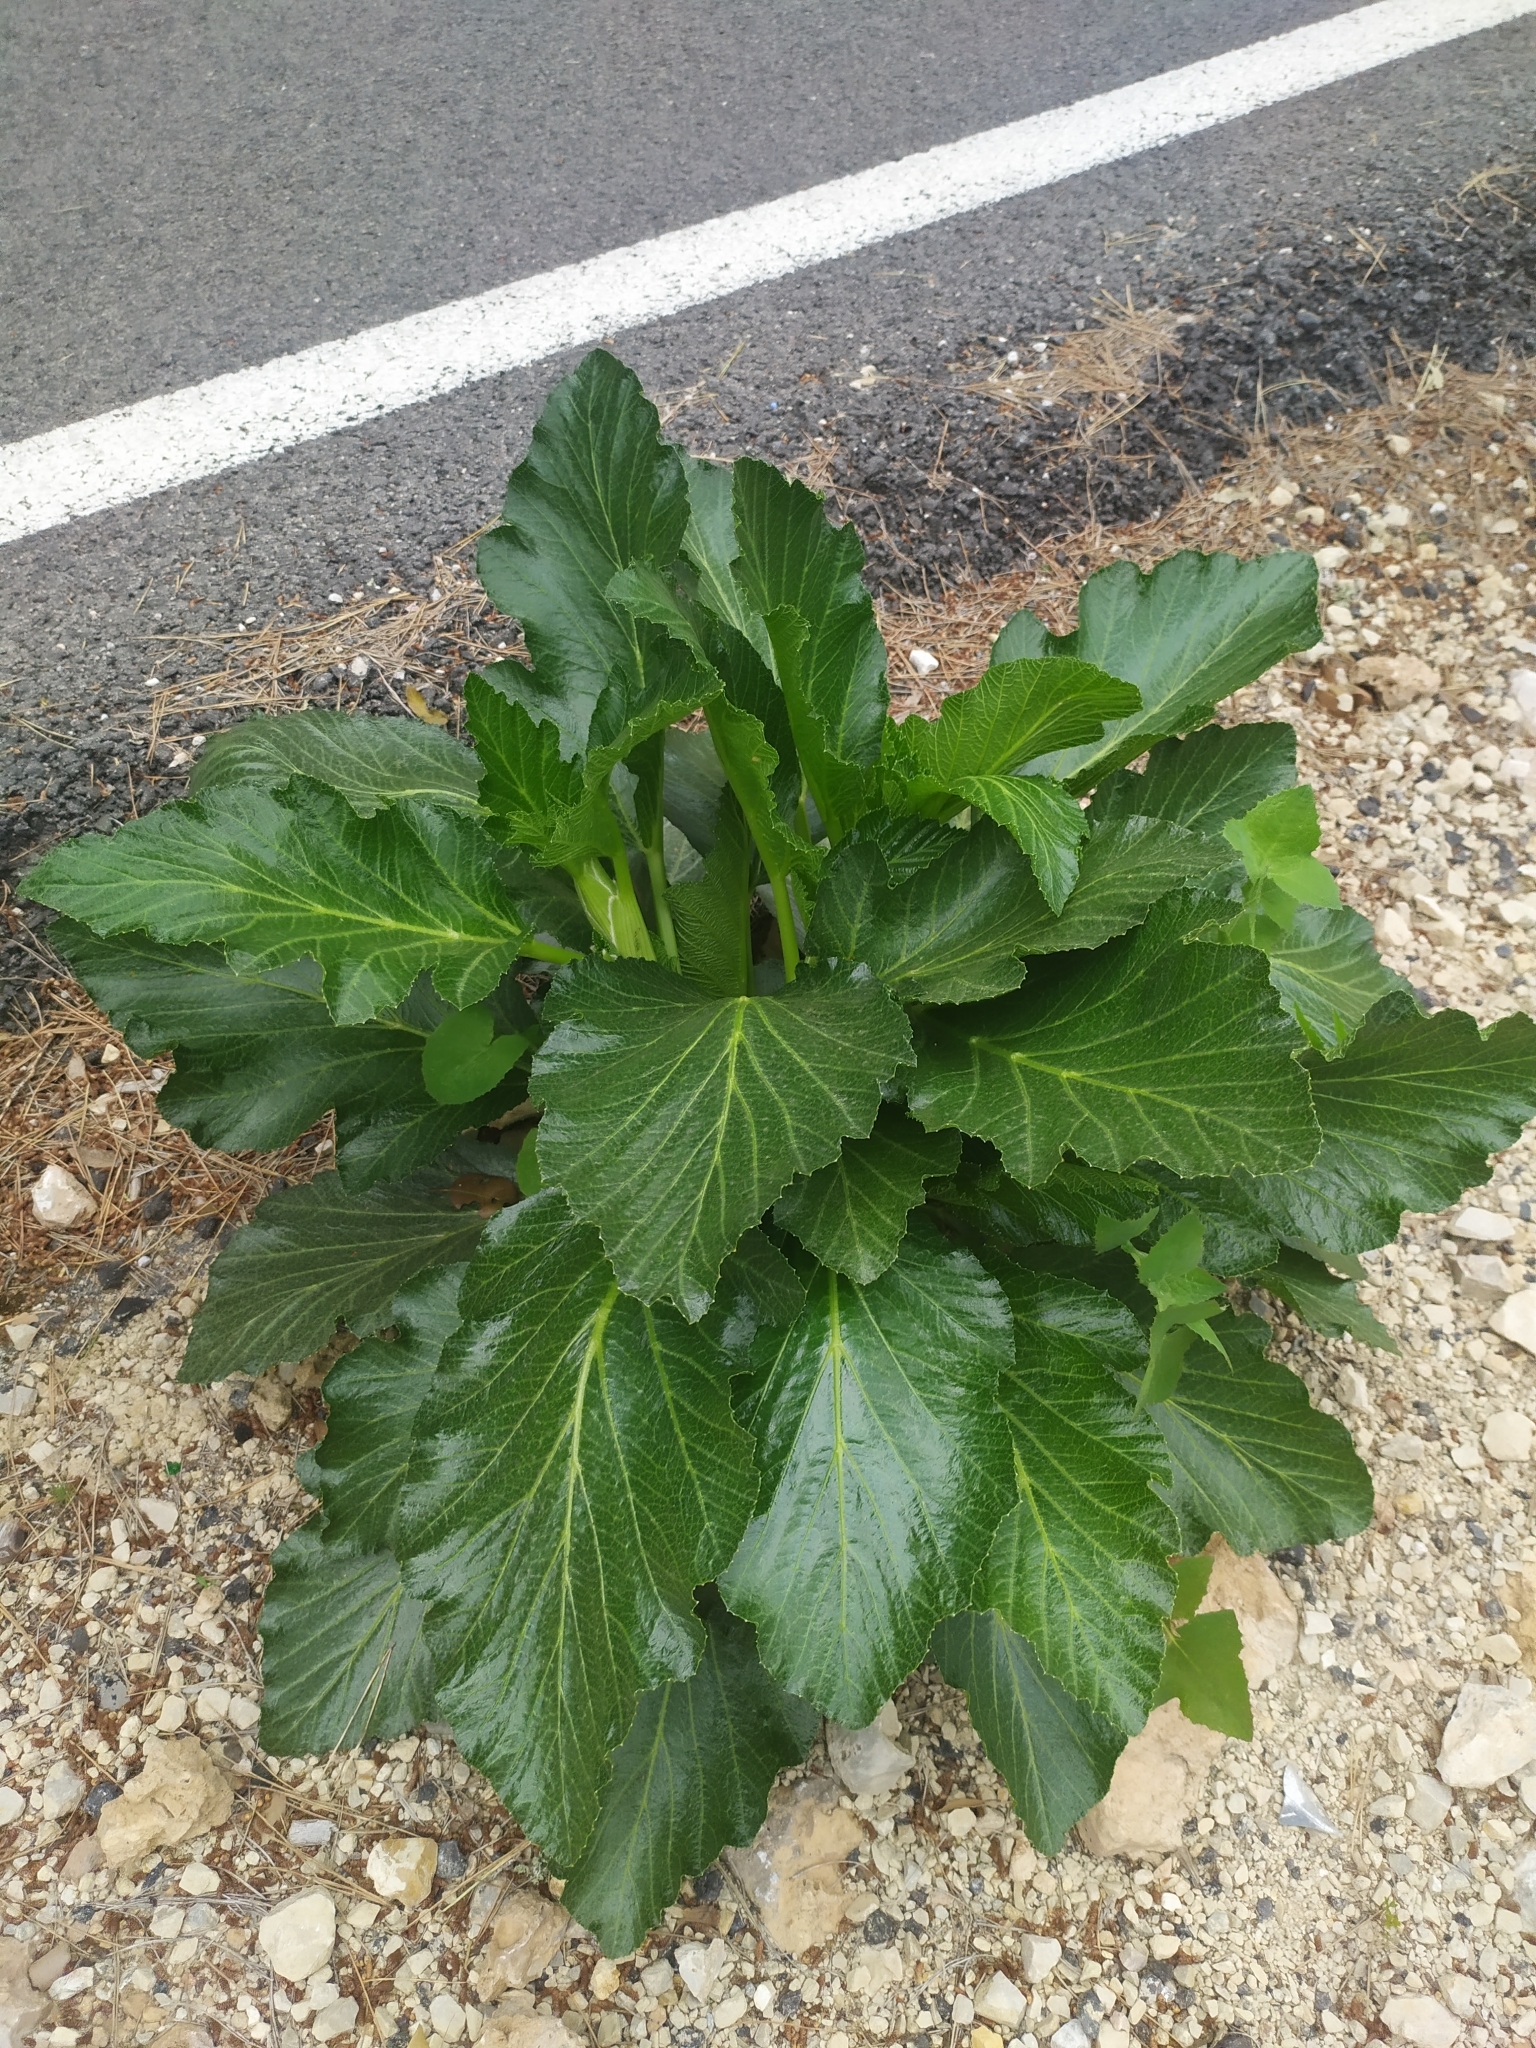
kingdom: Plantae
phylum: Tracheophyta
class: Magnoliopsida
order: Apiales
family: Apiaceae
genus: Pastinaca
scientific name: Pastinaca lucida
